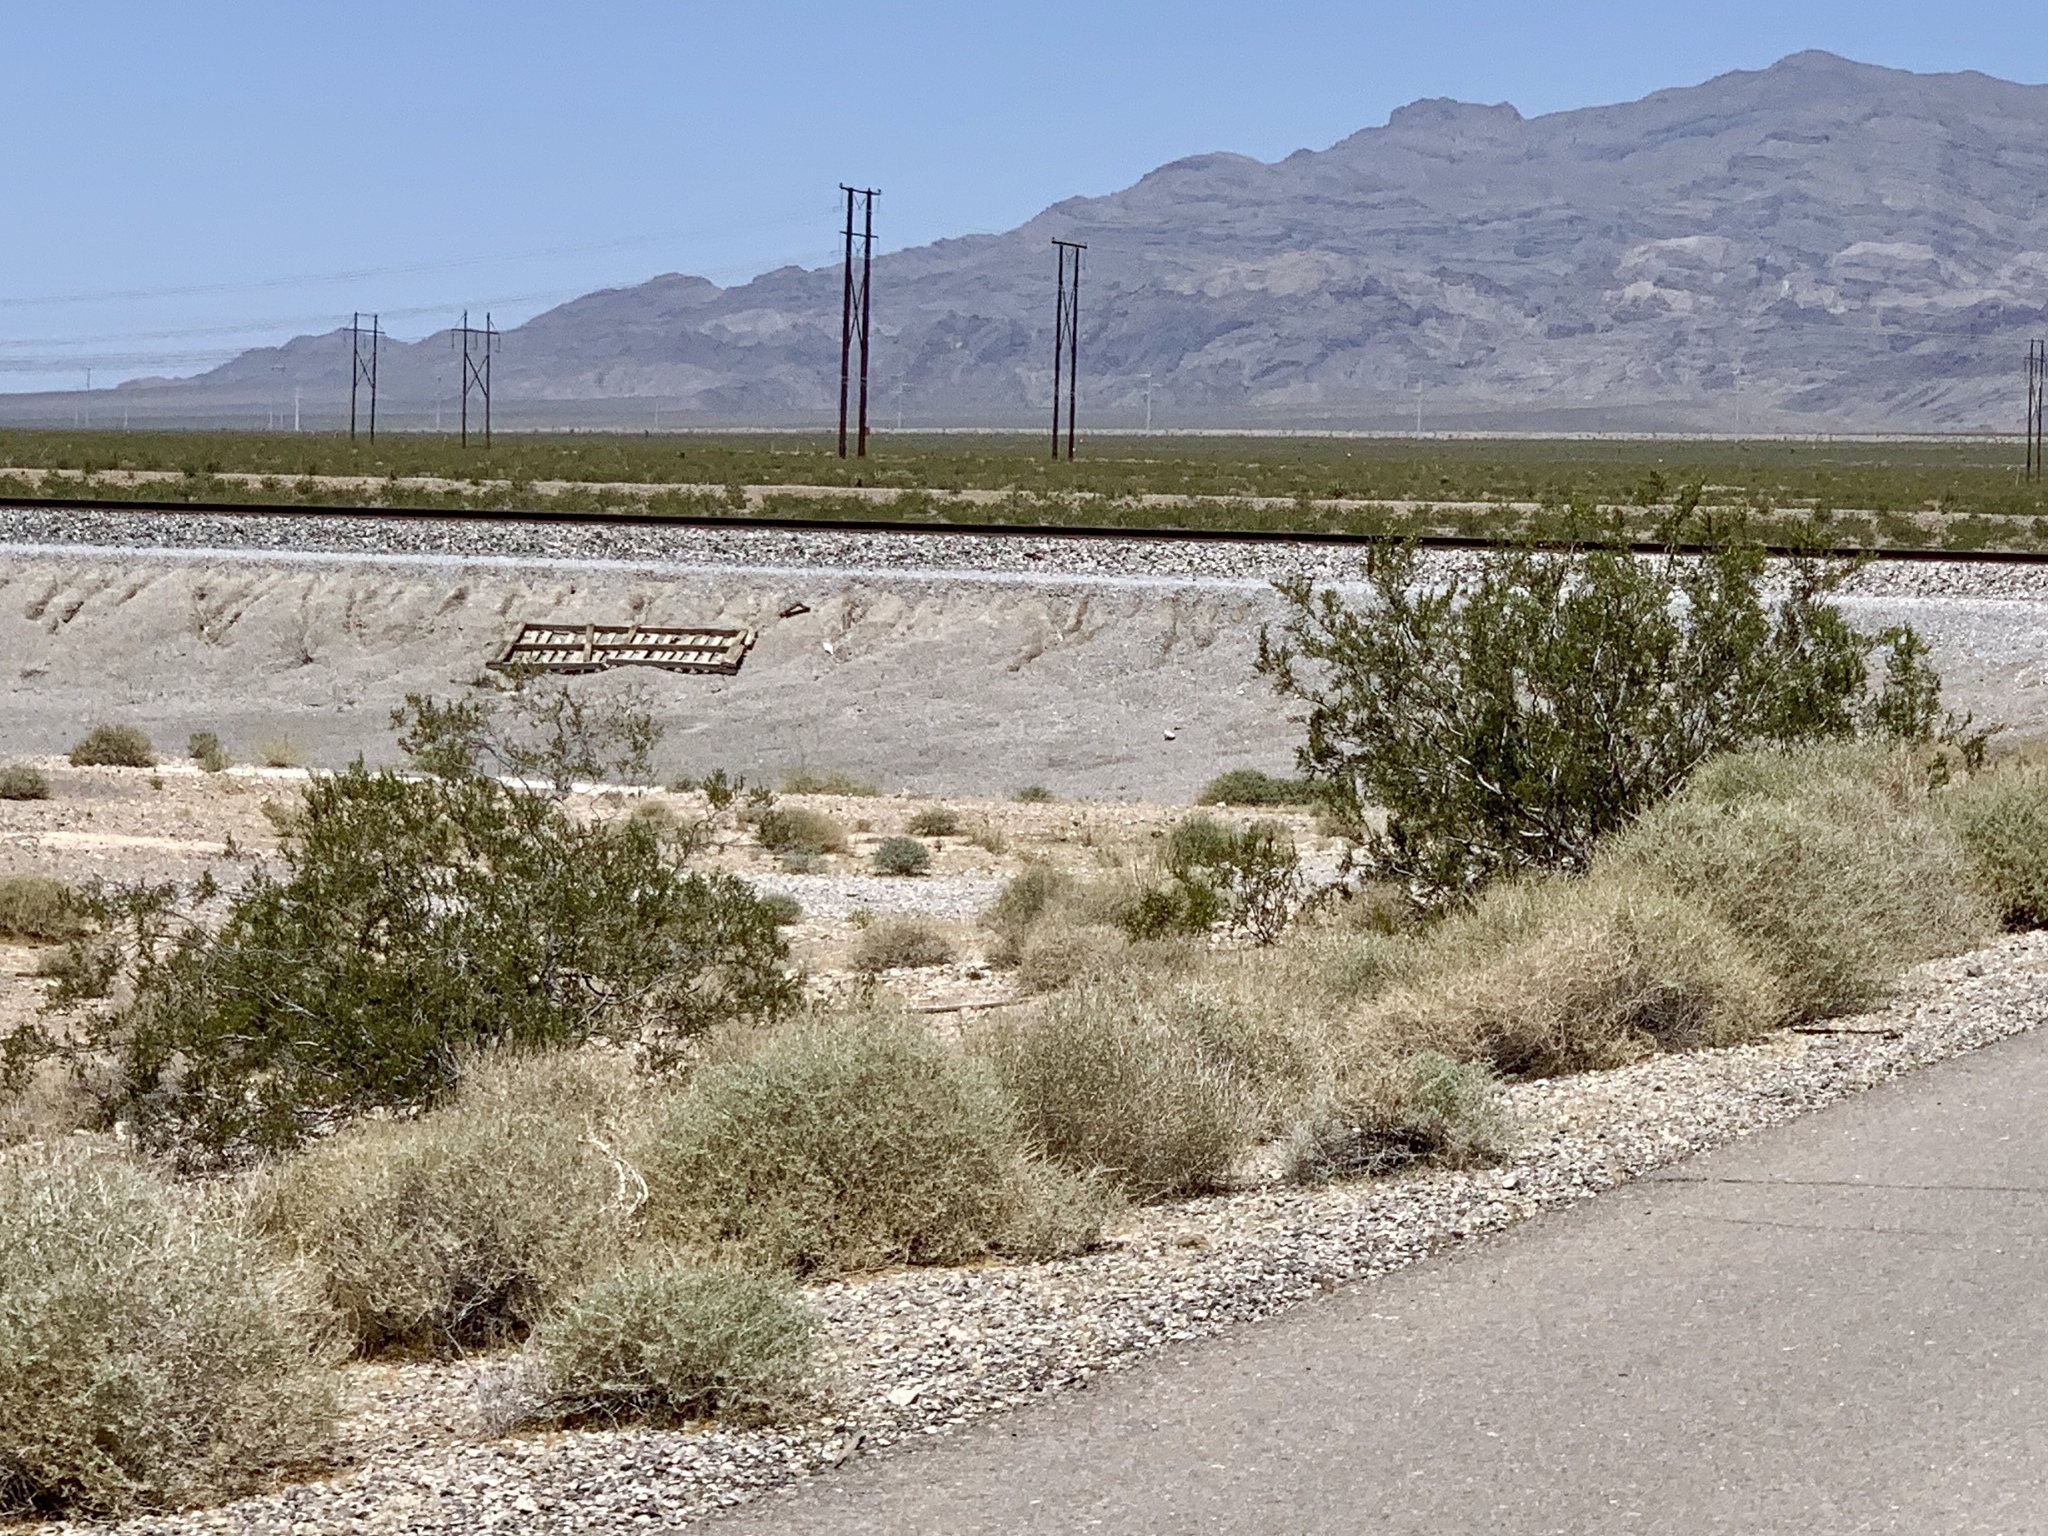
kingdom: Plantae
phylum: Tracheophyta
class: Magnoliopsida
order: Zygophyllales
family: Zygophyllaceae
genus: Larrea
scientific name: Larrea tridentata
